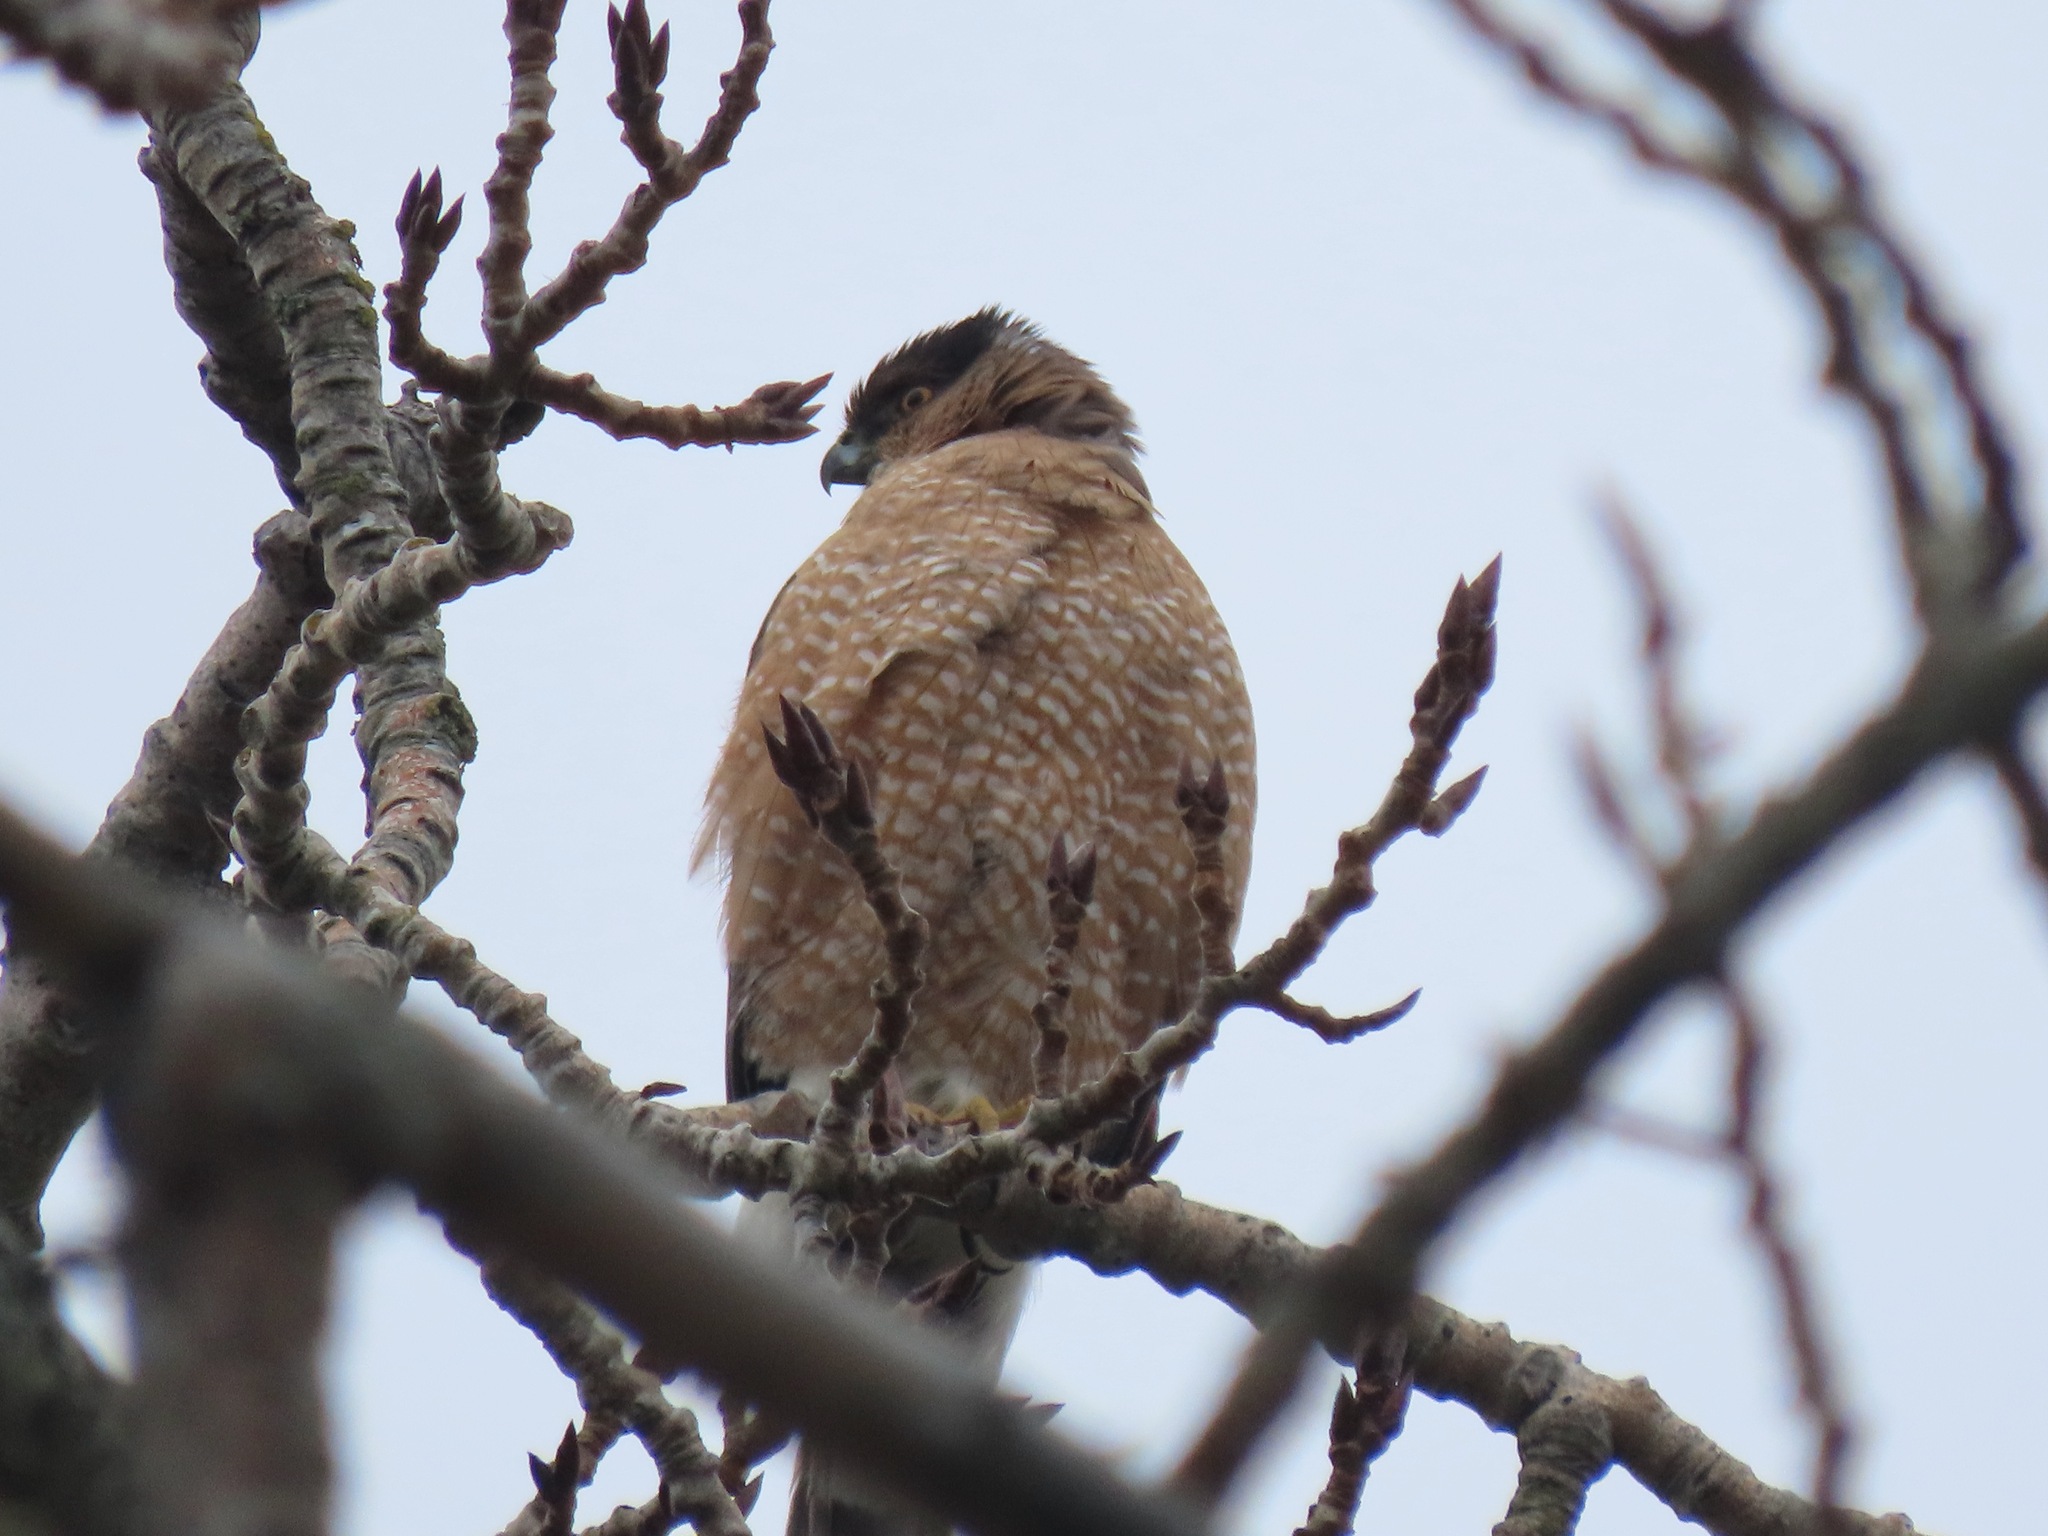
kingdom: Animalia
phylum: Chordata
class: Aves
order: Accipitriformes
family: Accipitridae
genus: Accipiter
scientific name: Accipiter cooperii
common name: Cooper's hawk
